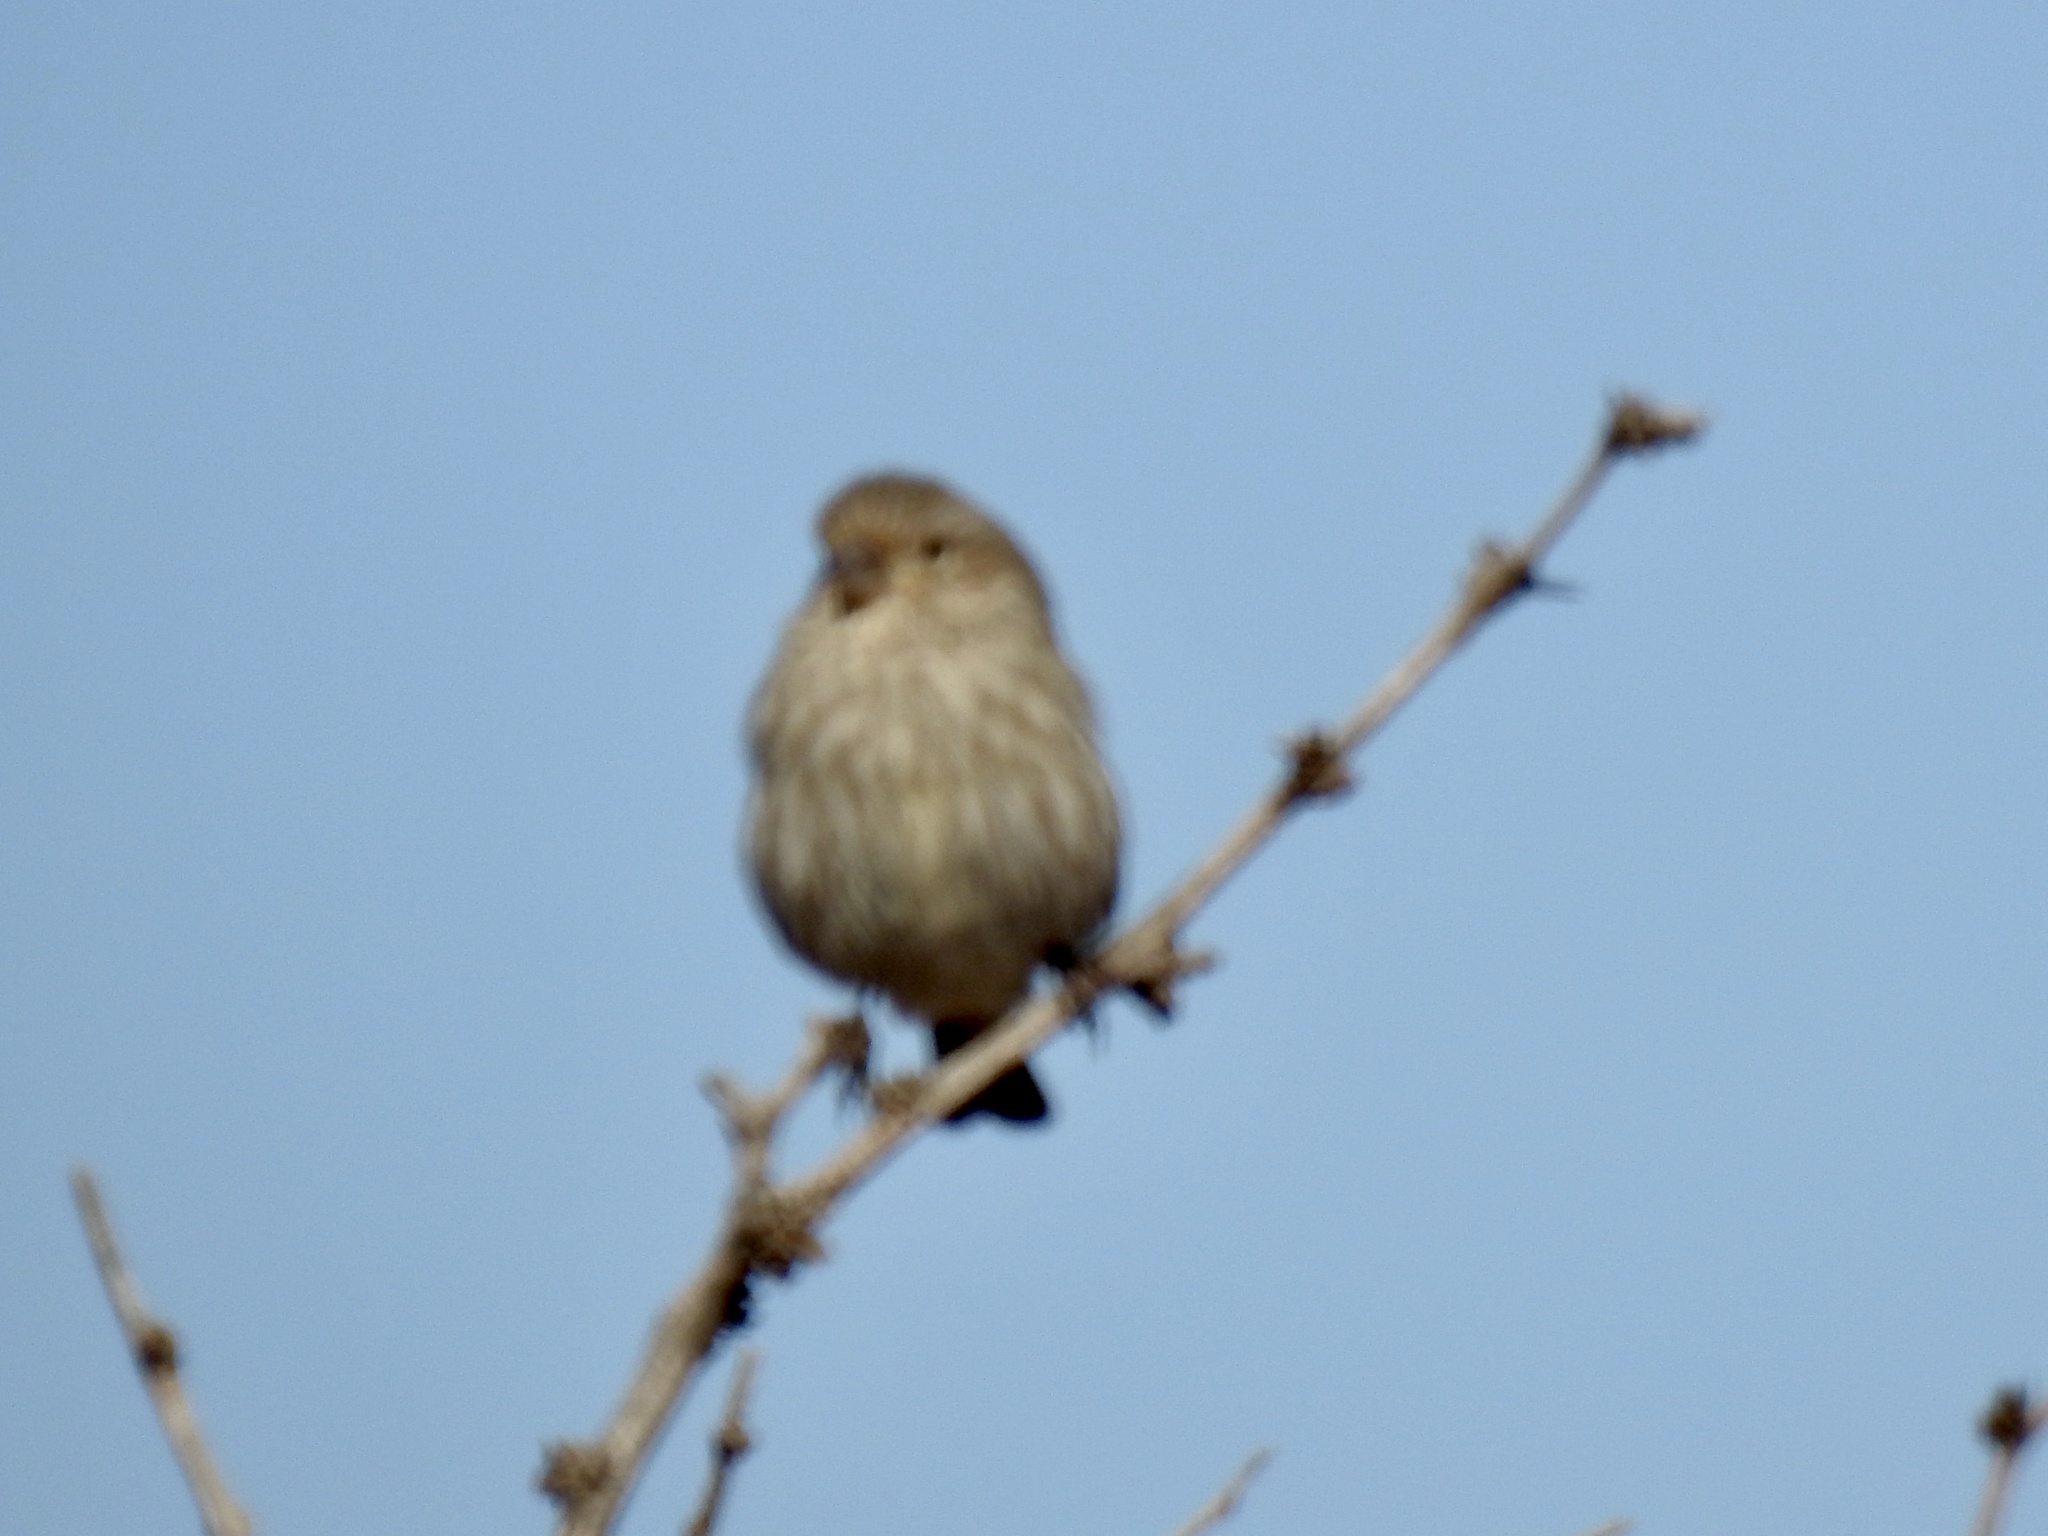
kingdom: Animalia
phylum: Chordata
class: Aves
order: Passeriformes
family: Fringillidae
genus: Haemorhous
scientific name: Haemorhous mexicanus
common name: House finch
